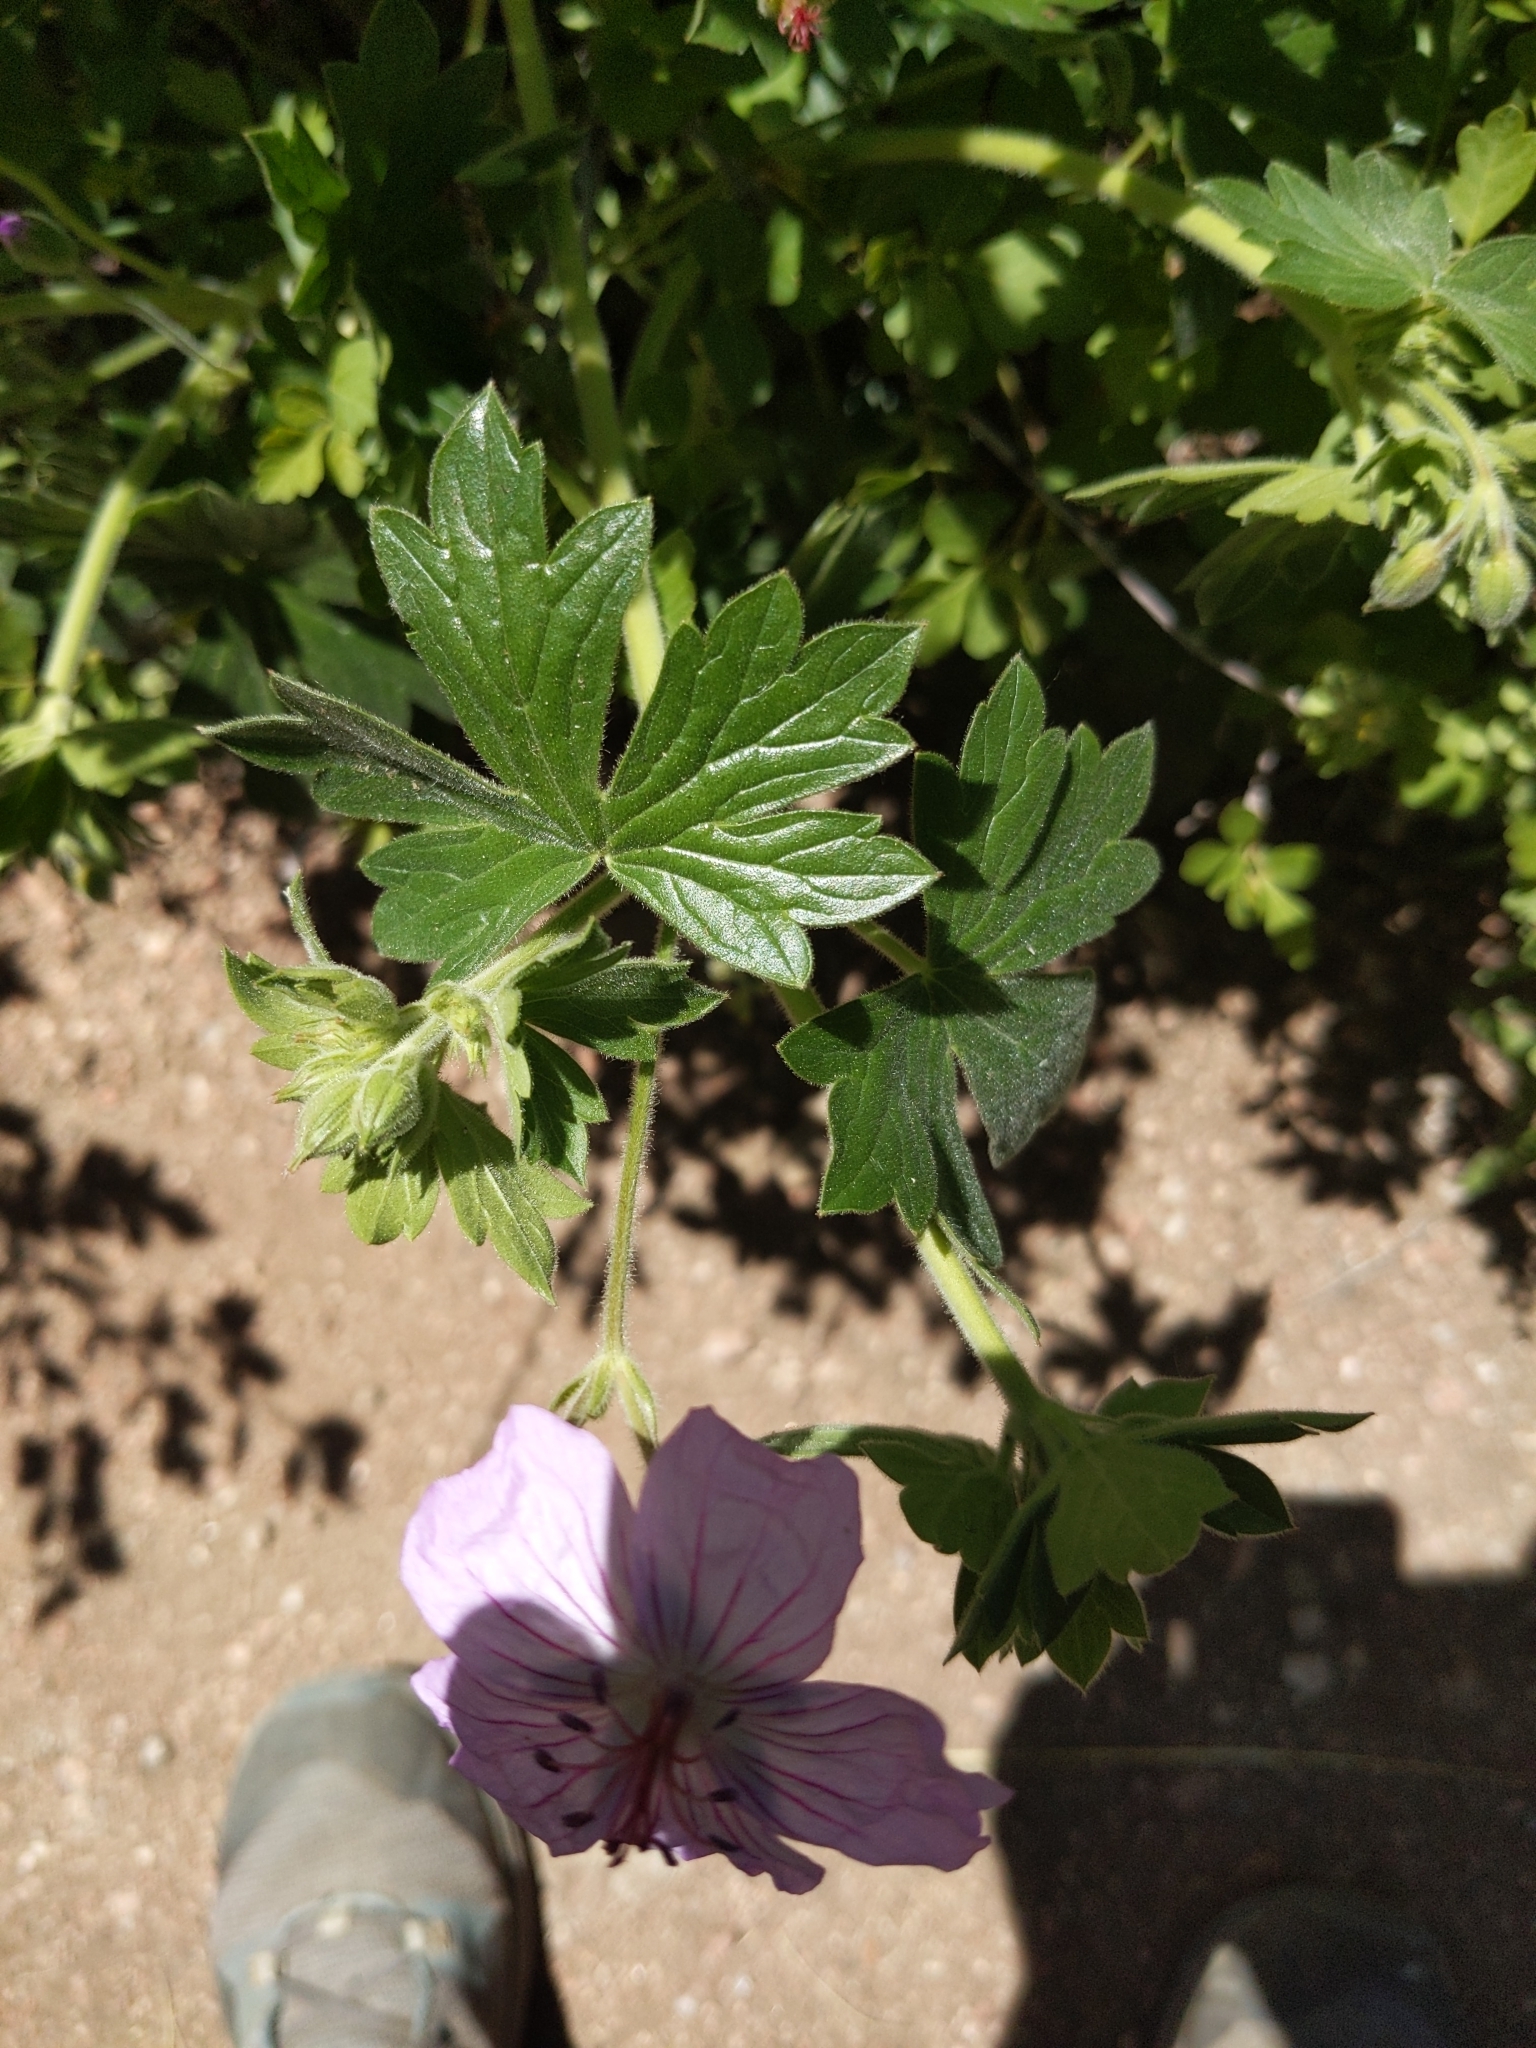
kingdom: Plantae
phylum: Tracheophyta
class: Magnoliopsida
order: Geraniales
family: Geraniaceae
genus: Geranium
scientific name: Geranium caespitosum
